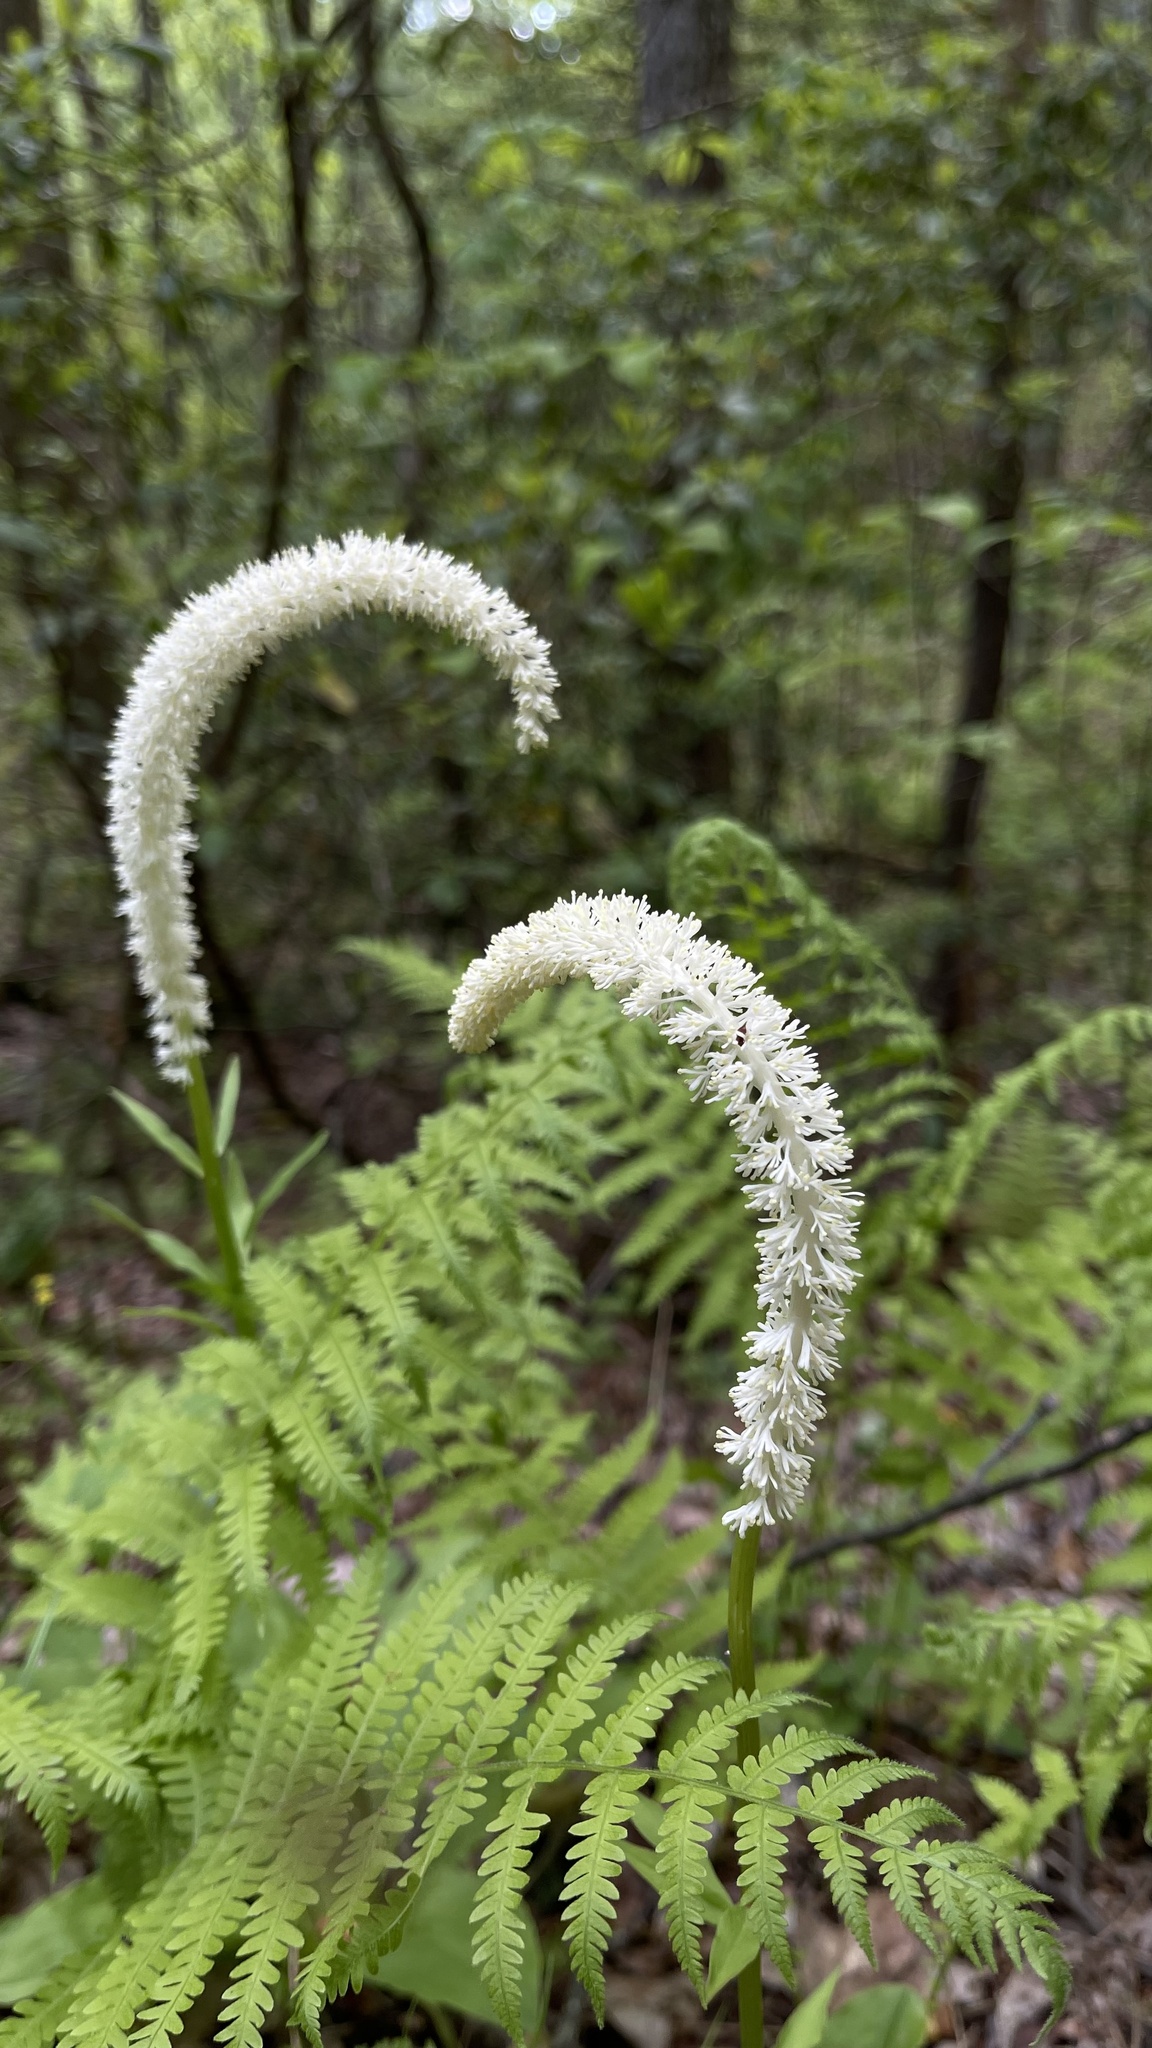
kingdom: Plantae
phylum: Tracheophyta
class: Liliopsida
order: Liliales
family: Melanthiaceae
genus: Chamaelirium
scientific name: Chamaelirium luteum
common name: Fairy-wand
